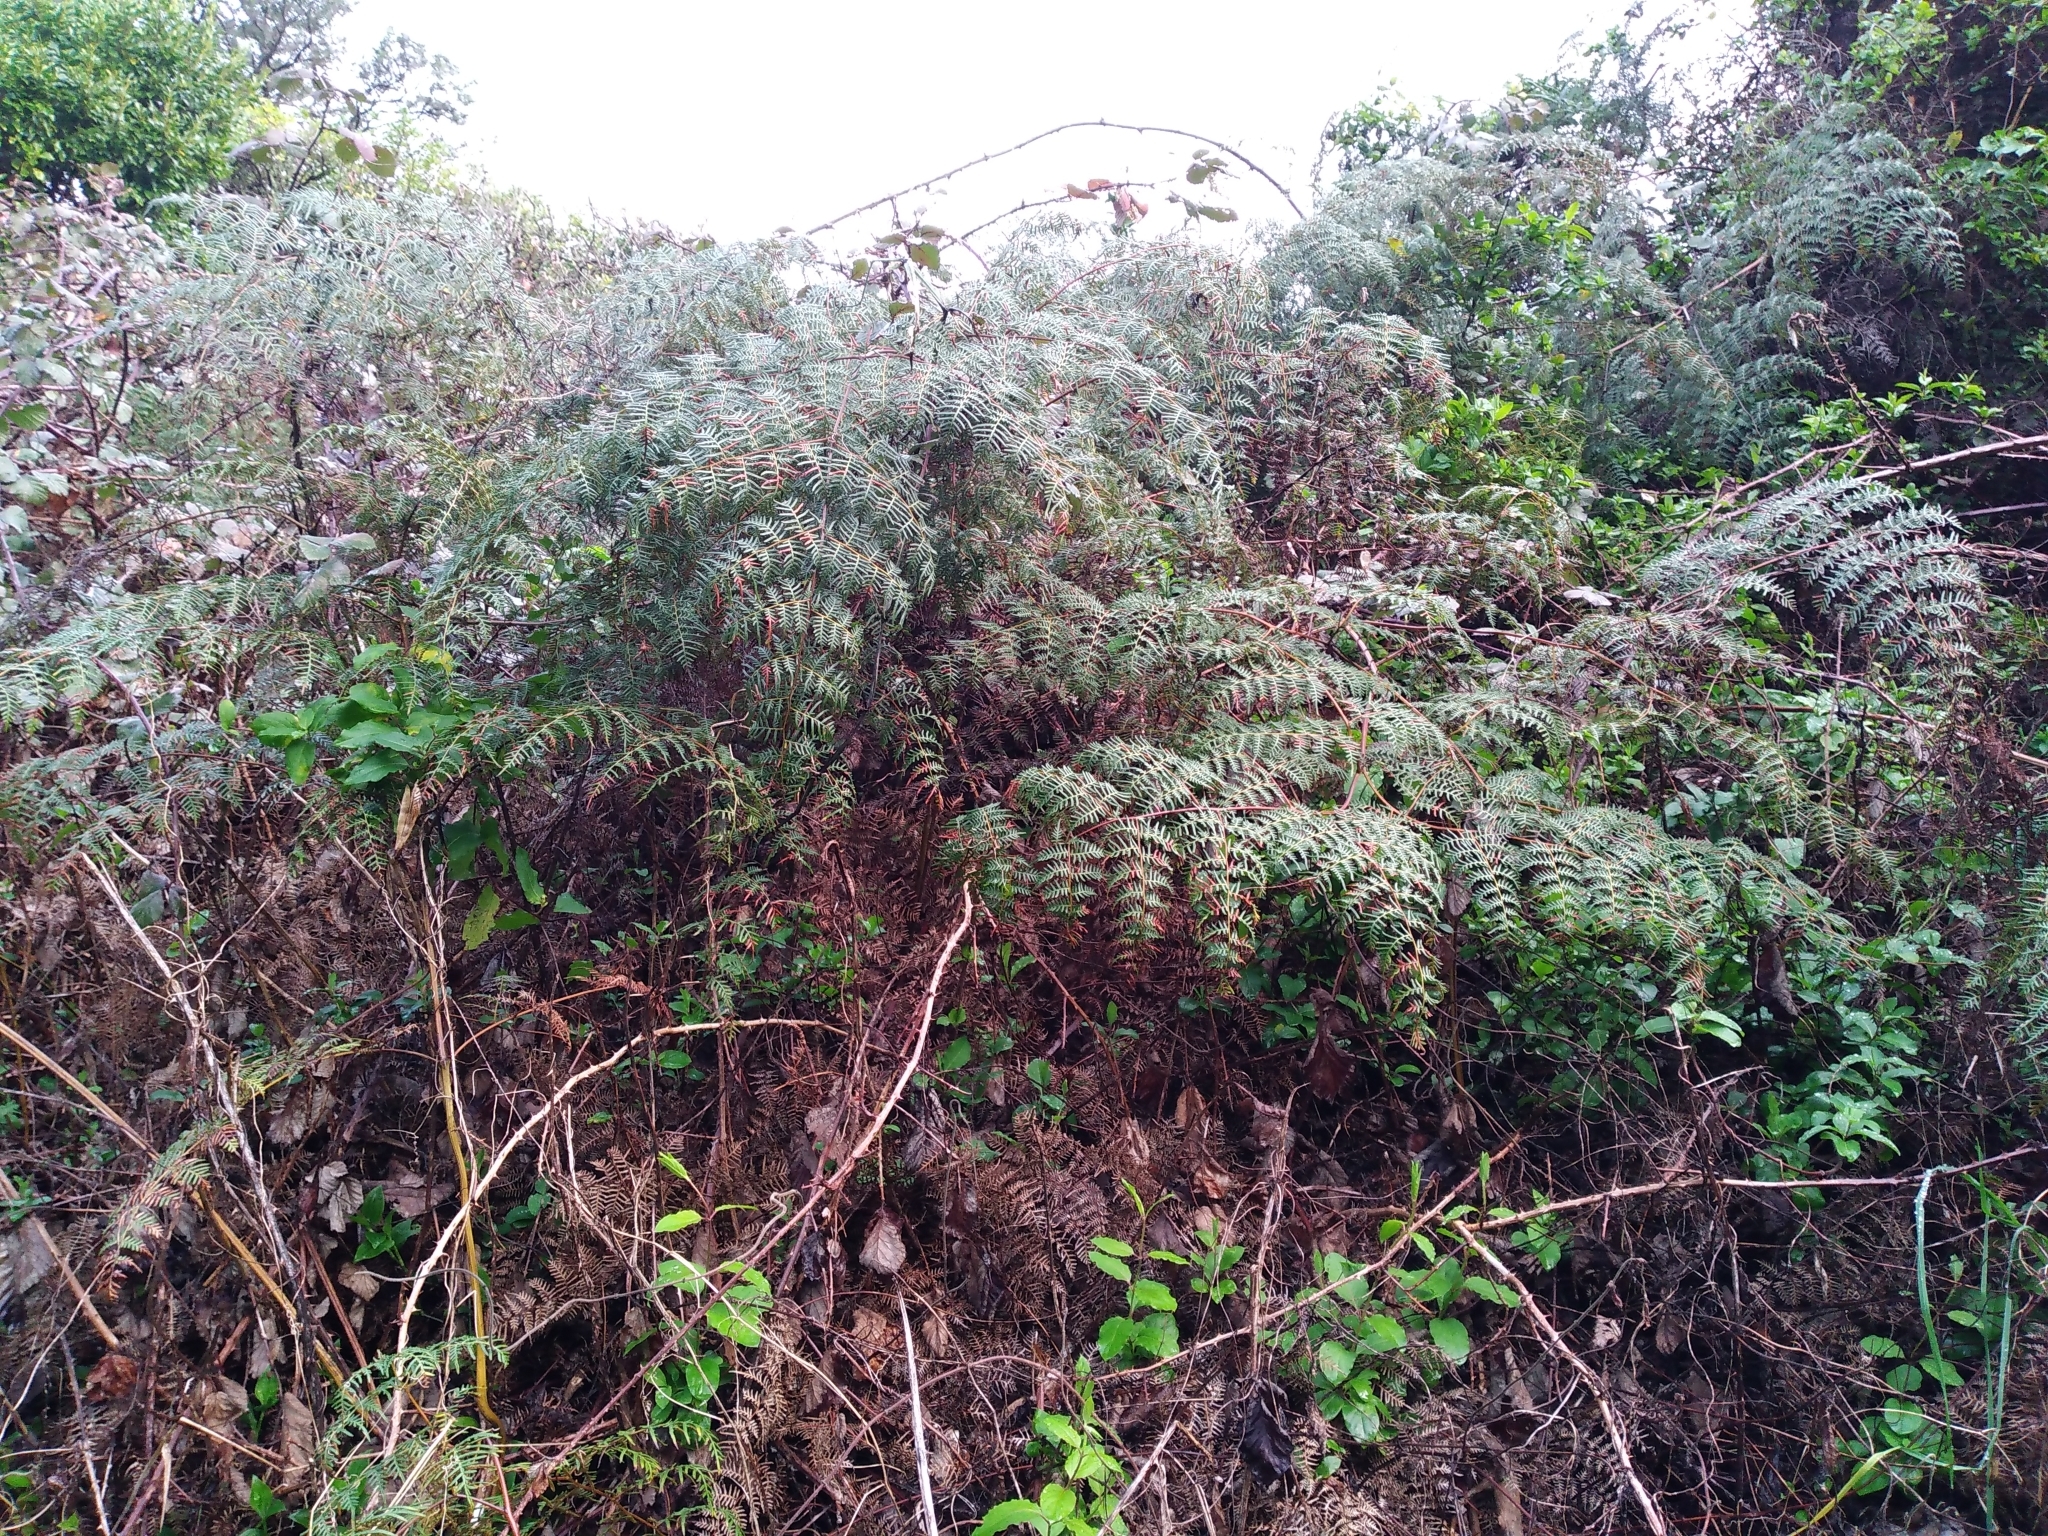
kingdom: Plantae
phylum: Tracheophyta
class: Polypodiopsida
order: Polypodiales
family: Dennstaedtiaceae
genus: Pteridium
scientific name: Pteridium esculentum
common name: Bracken fern
